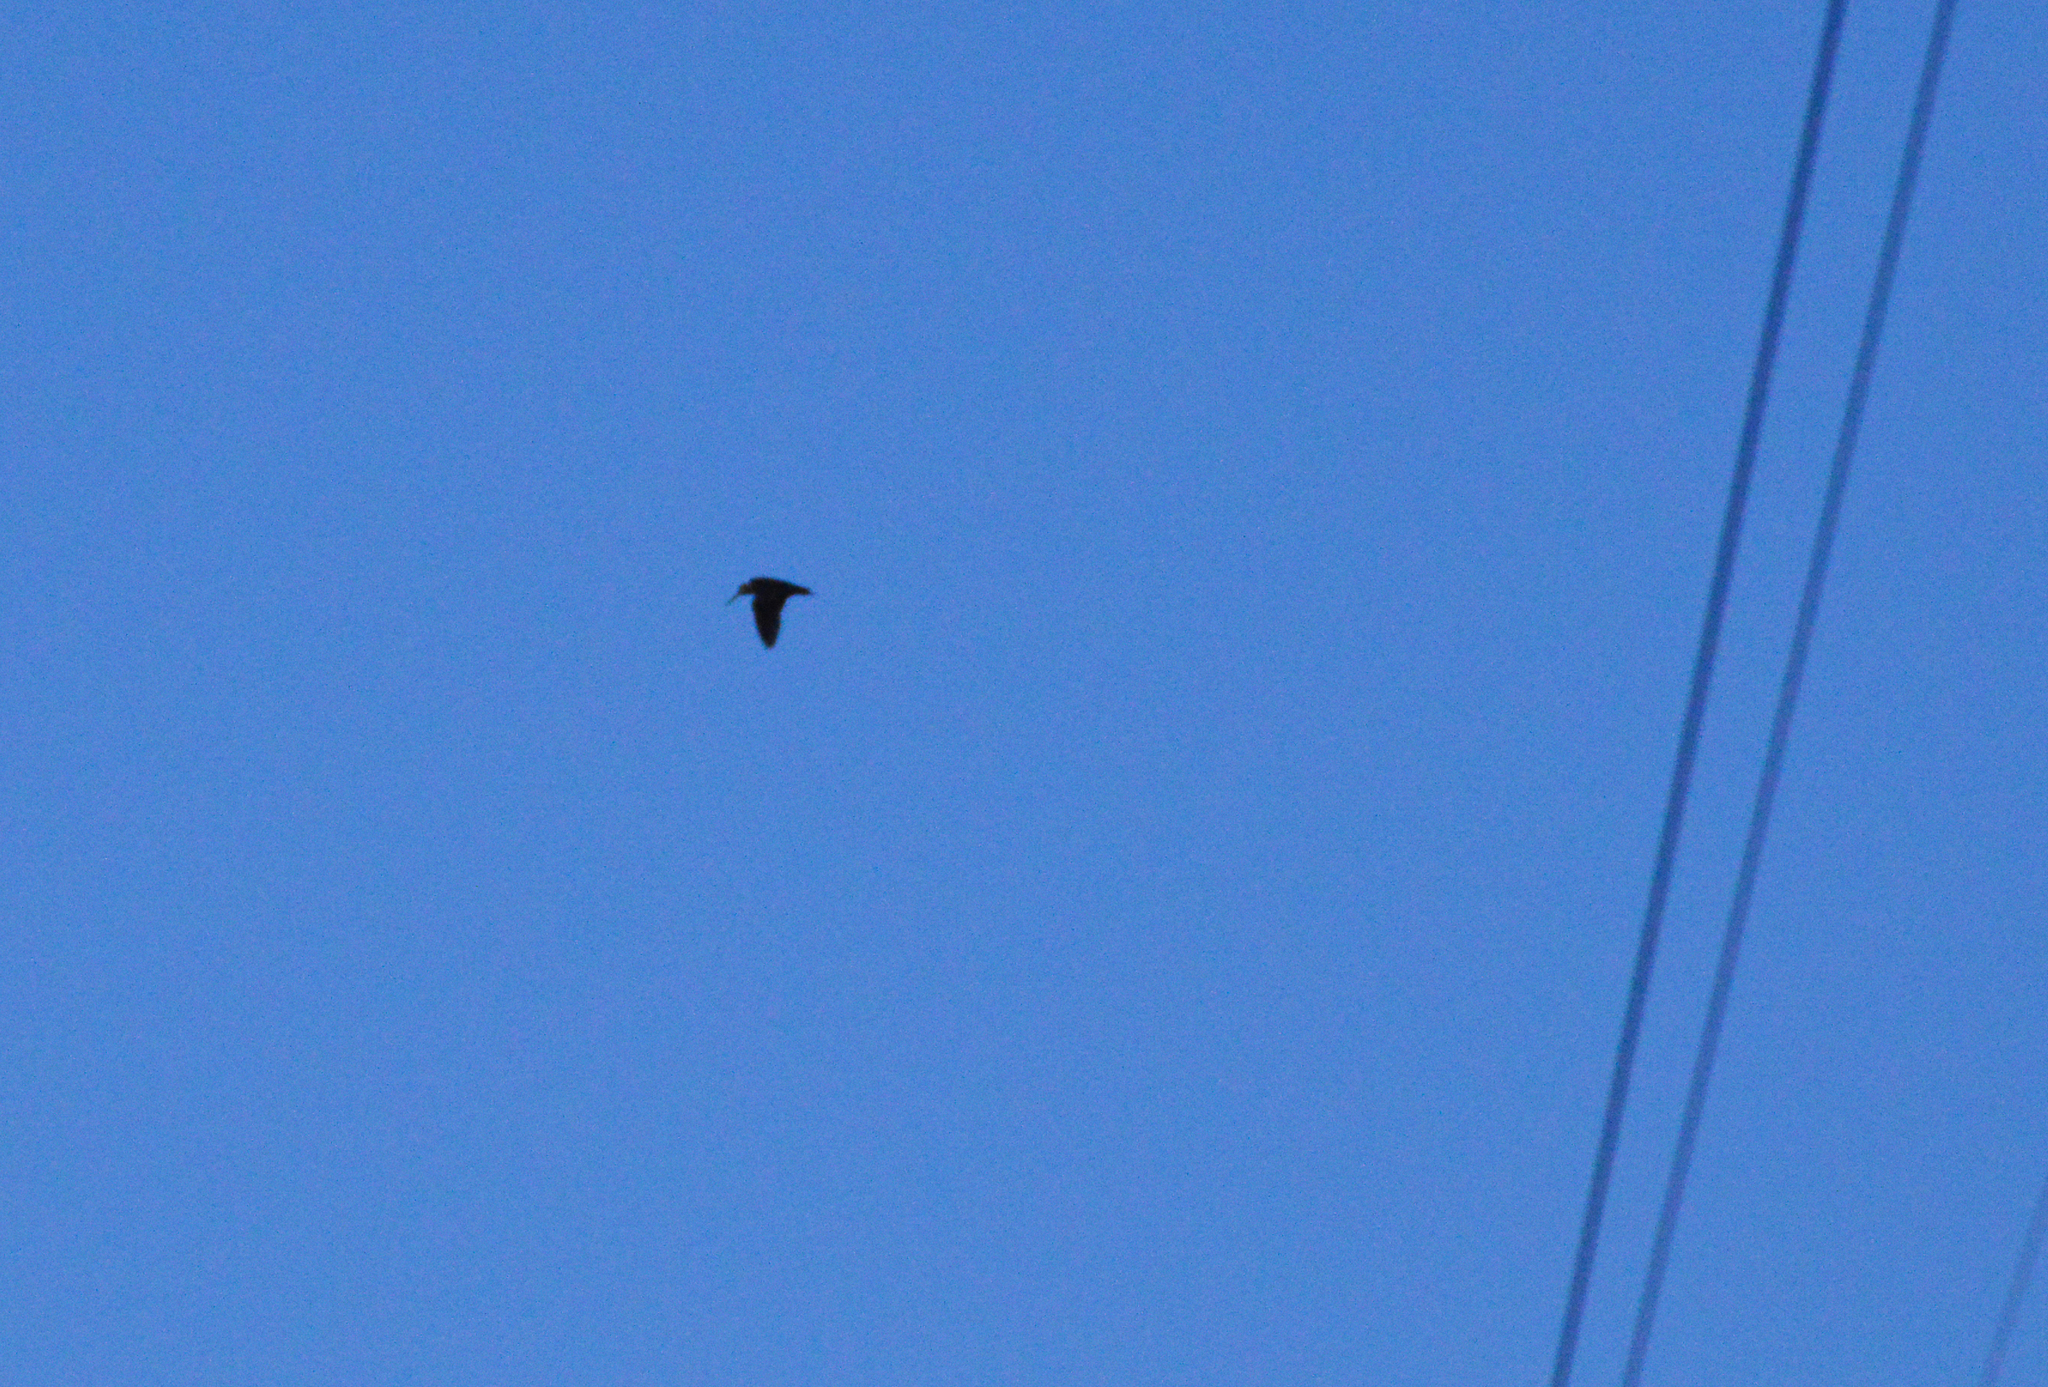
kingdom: Animalia
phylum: Chordata
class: Aves
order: Charadriiformes
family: Scolopacidae
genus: Scolopax
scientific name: Scolopax rusticola
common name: Eurasian woodcock
